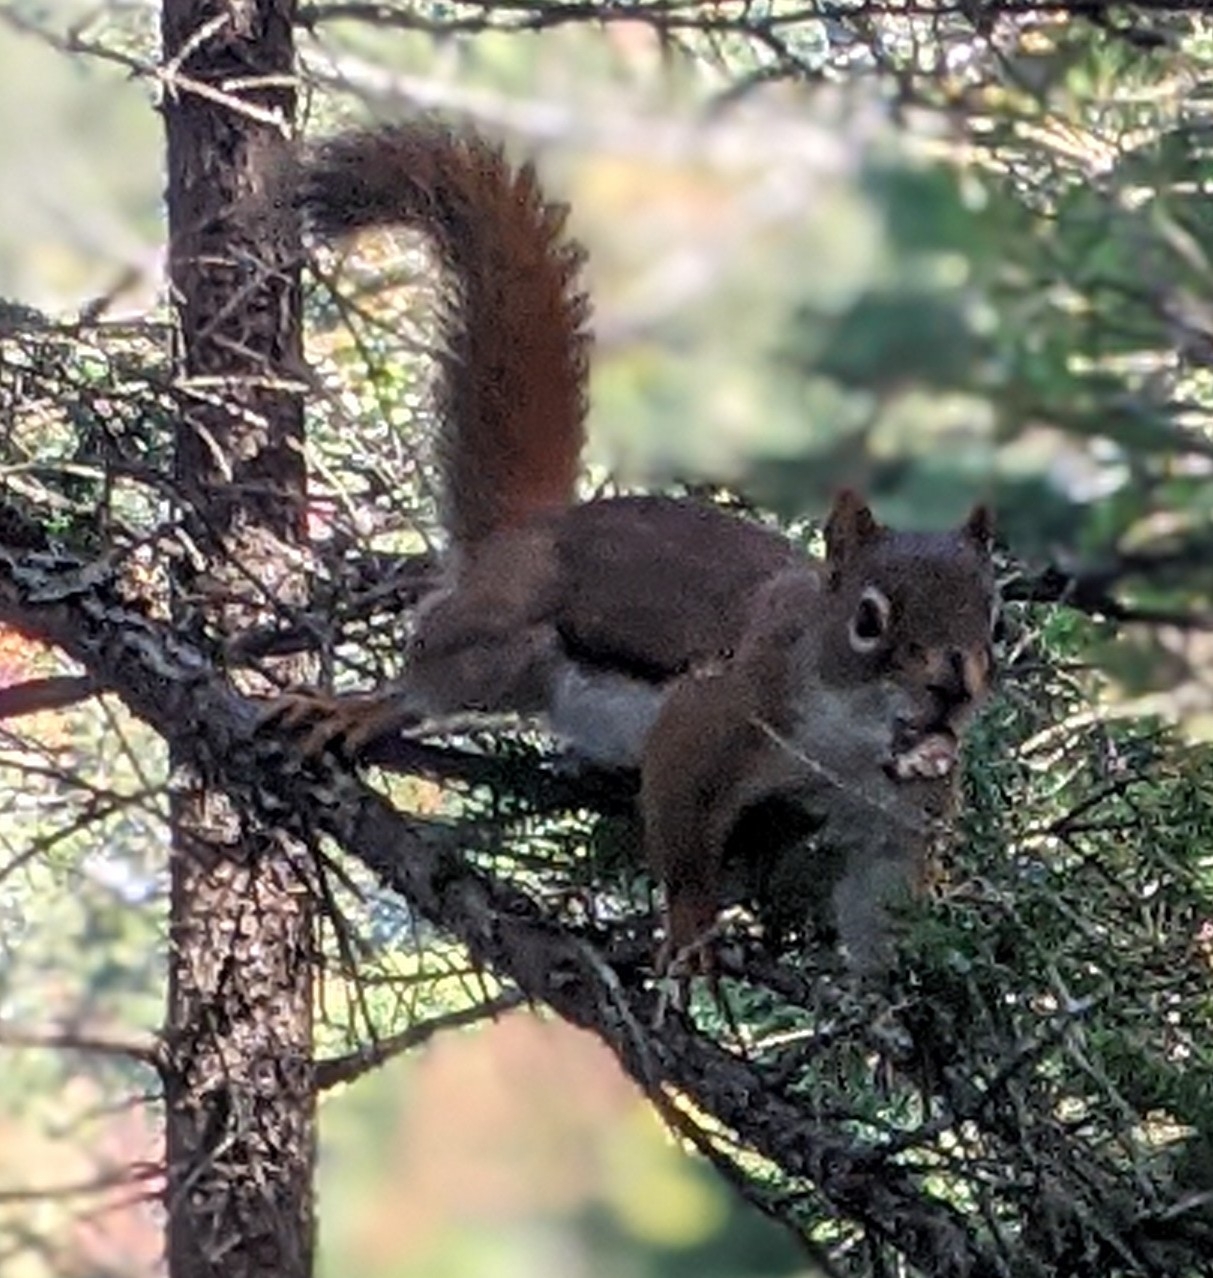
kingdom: Animalia
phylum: Chordata
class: Mammalia
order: Rodentia
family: Sciuridae
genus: Tamiasciurus
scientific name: Tamiasciurus hudsonicus
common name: Red squirrel
